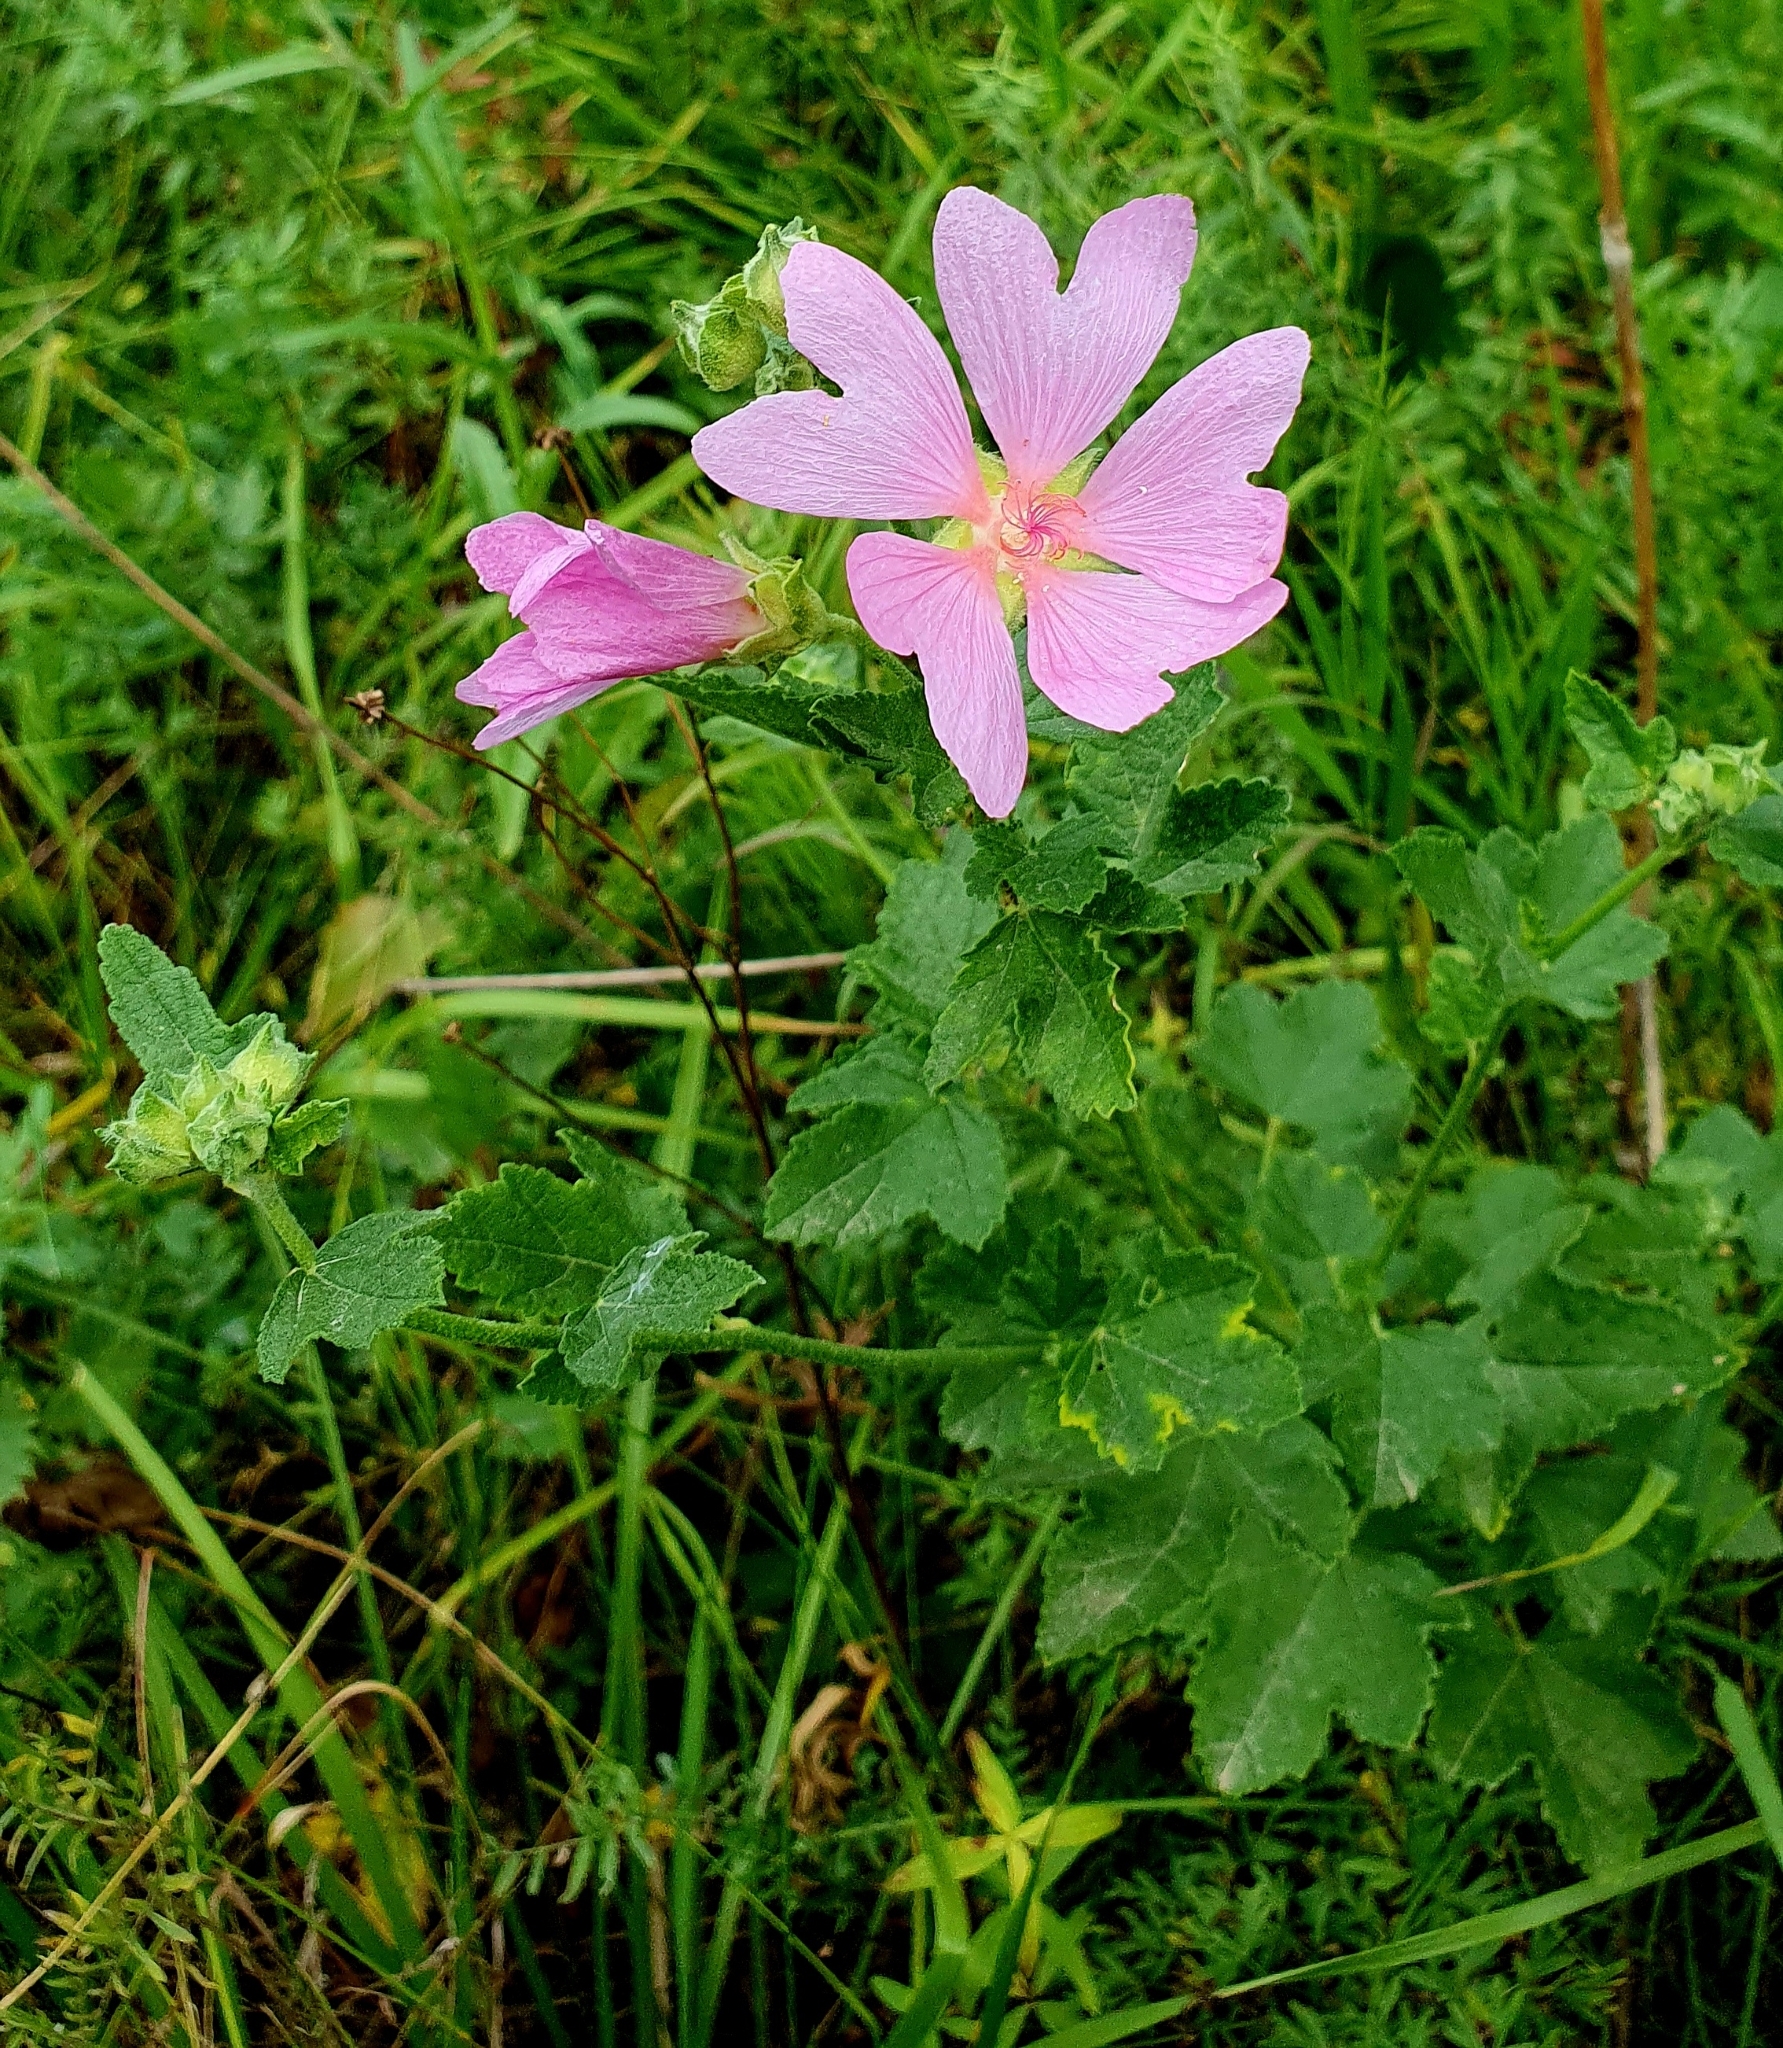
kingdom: Plantae
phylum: Tracheophyta
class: Magnoliopsida
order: Malvales
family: Malvaceae
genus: Malva
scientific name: Malva thuringiaca
